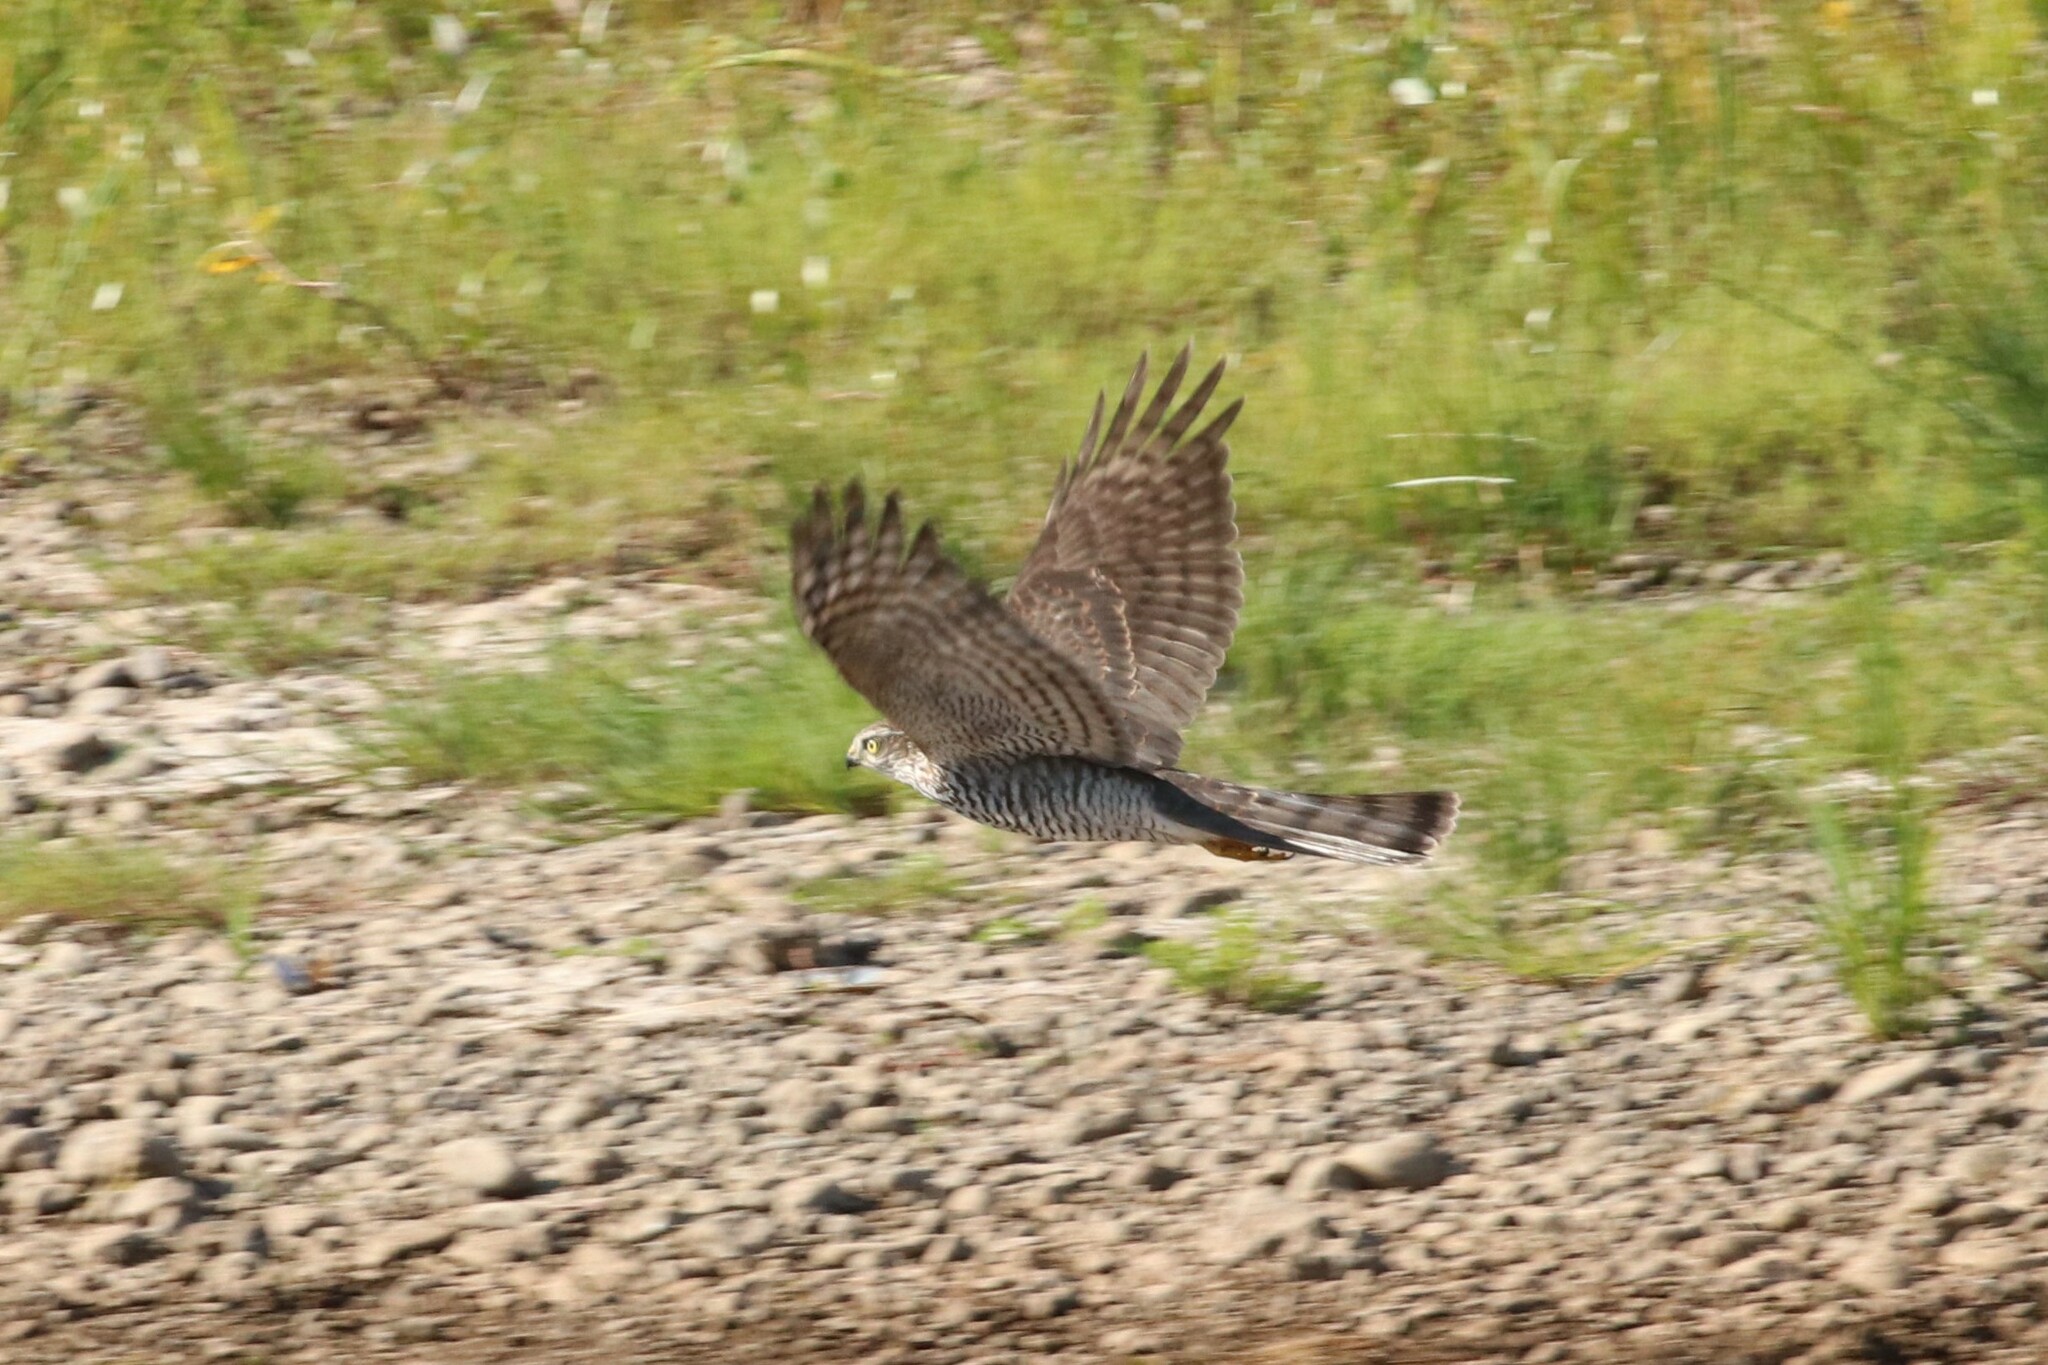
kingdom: Animalia
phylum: Chordata
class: Aves
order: Accipitriformes
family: Accipitridae
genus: Accipiter
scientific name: Accipiter nisus
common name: Eurasian sparrowhawk
